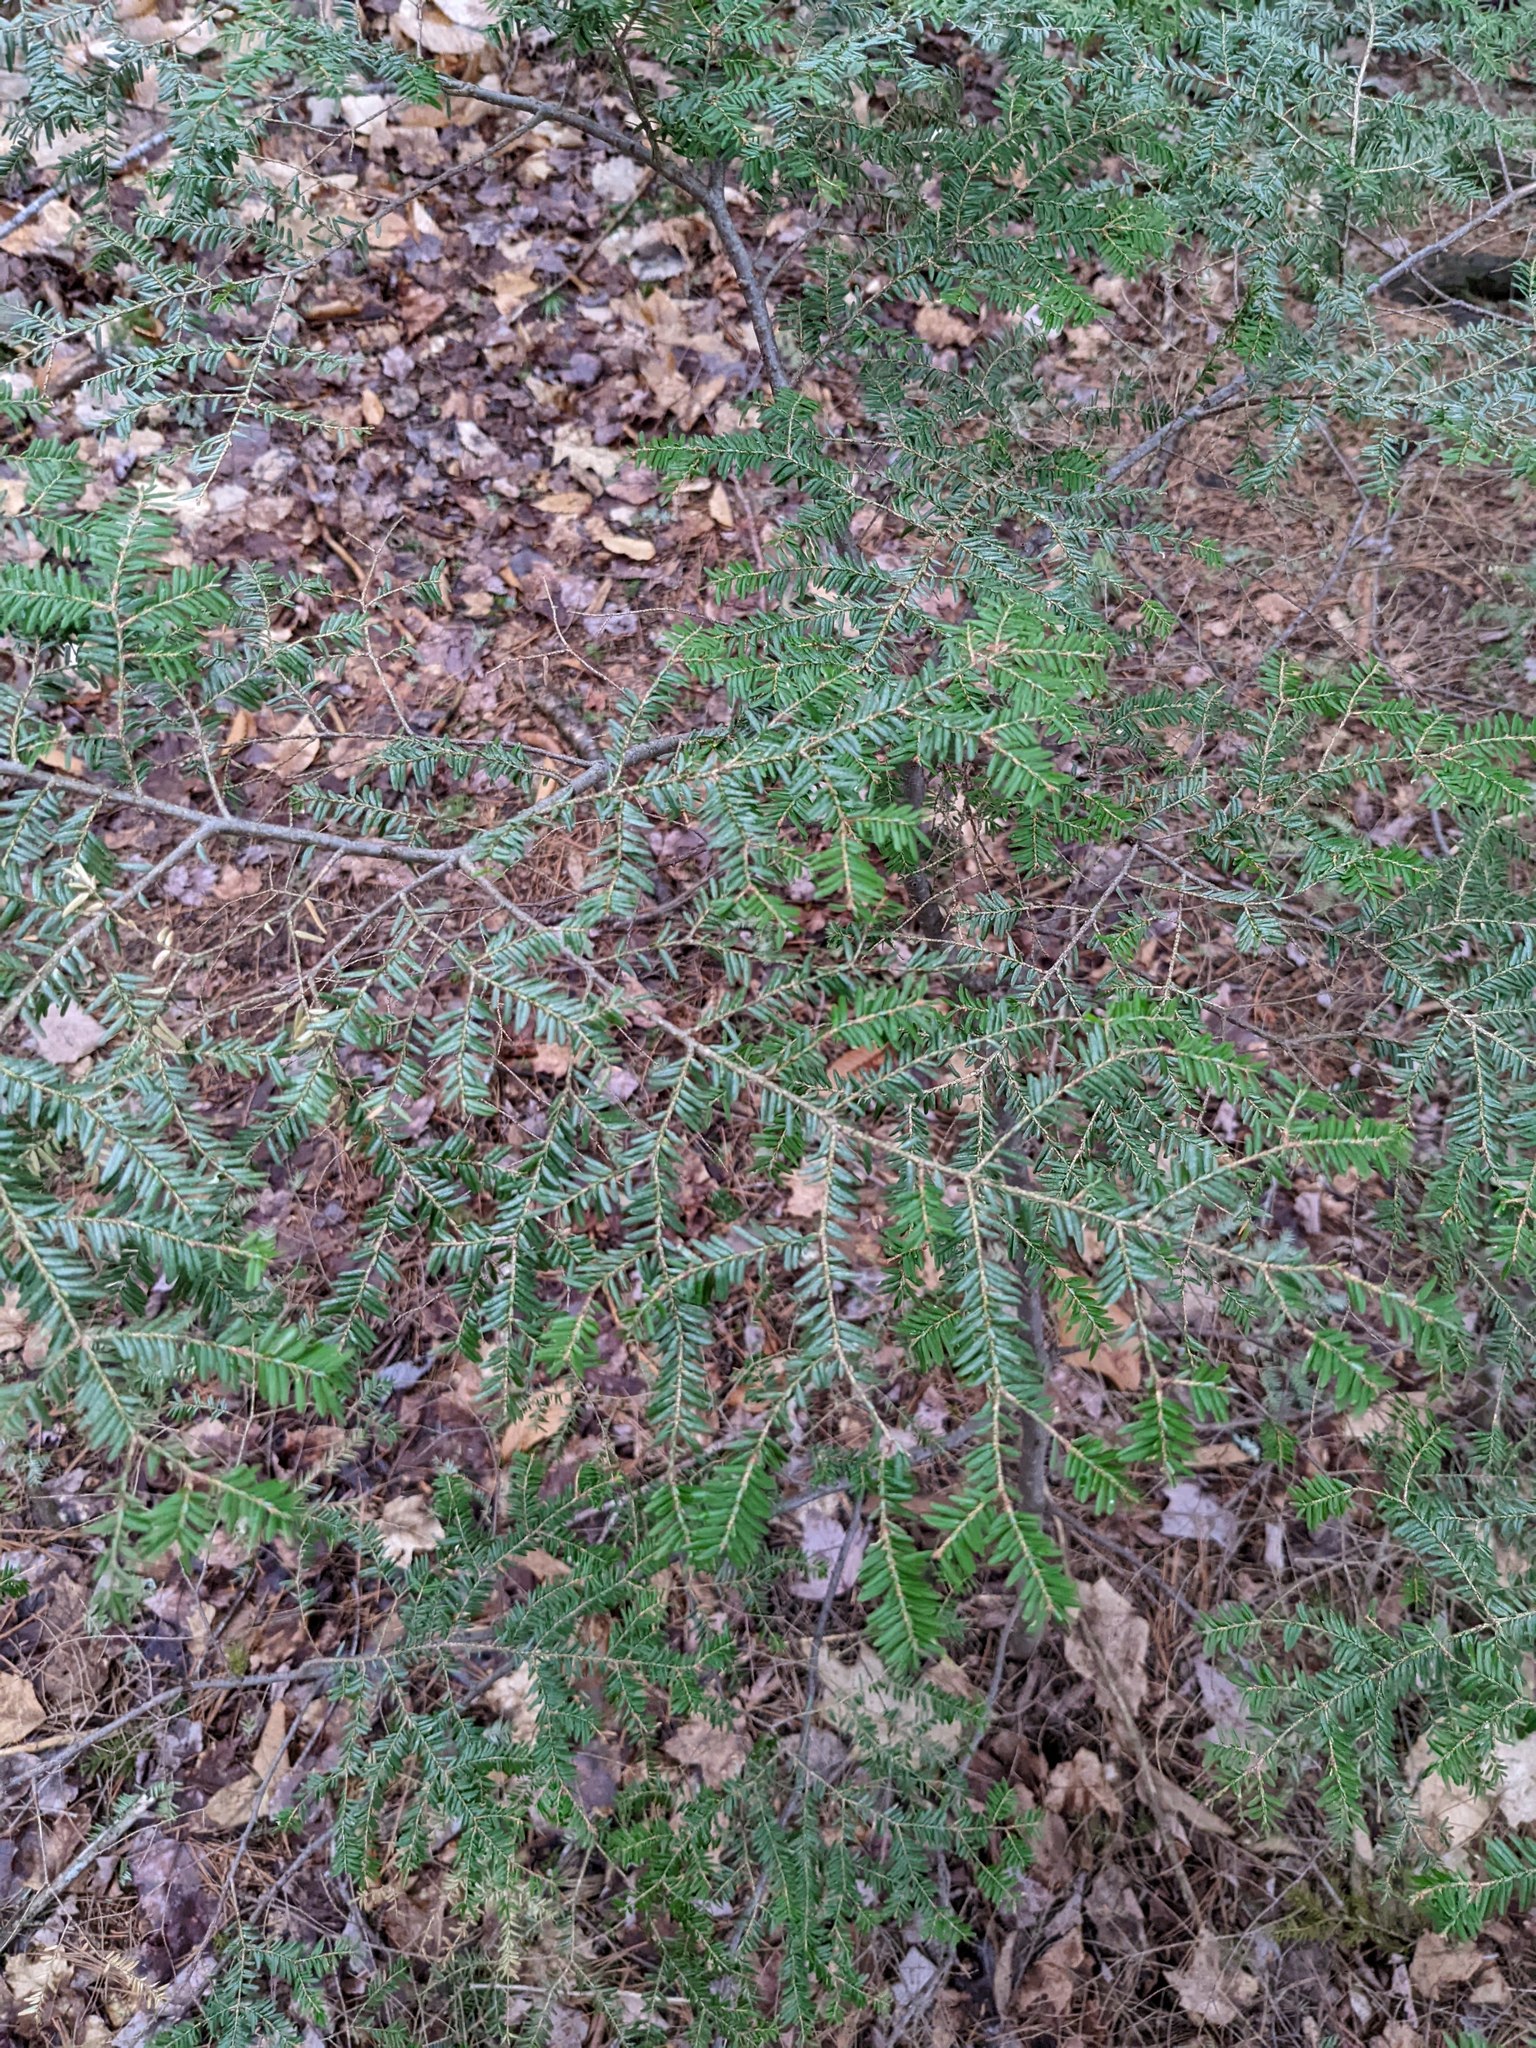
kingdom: Plantae
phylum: Tracheophyta
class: Pinopsida
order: Pinales
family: Pinaceae
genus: Tsuga
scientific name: Tsuga canadensis
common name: Eastern hemlock
